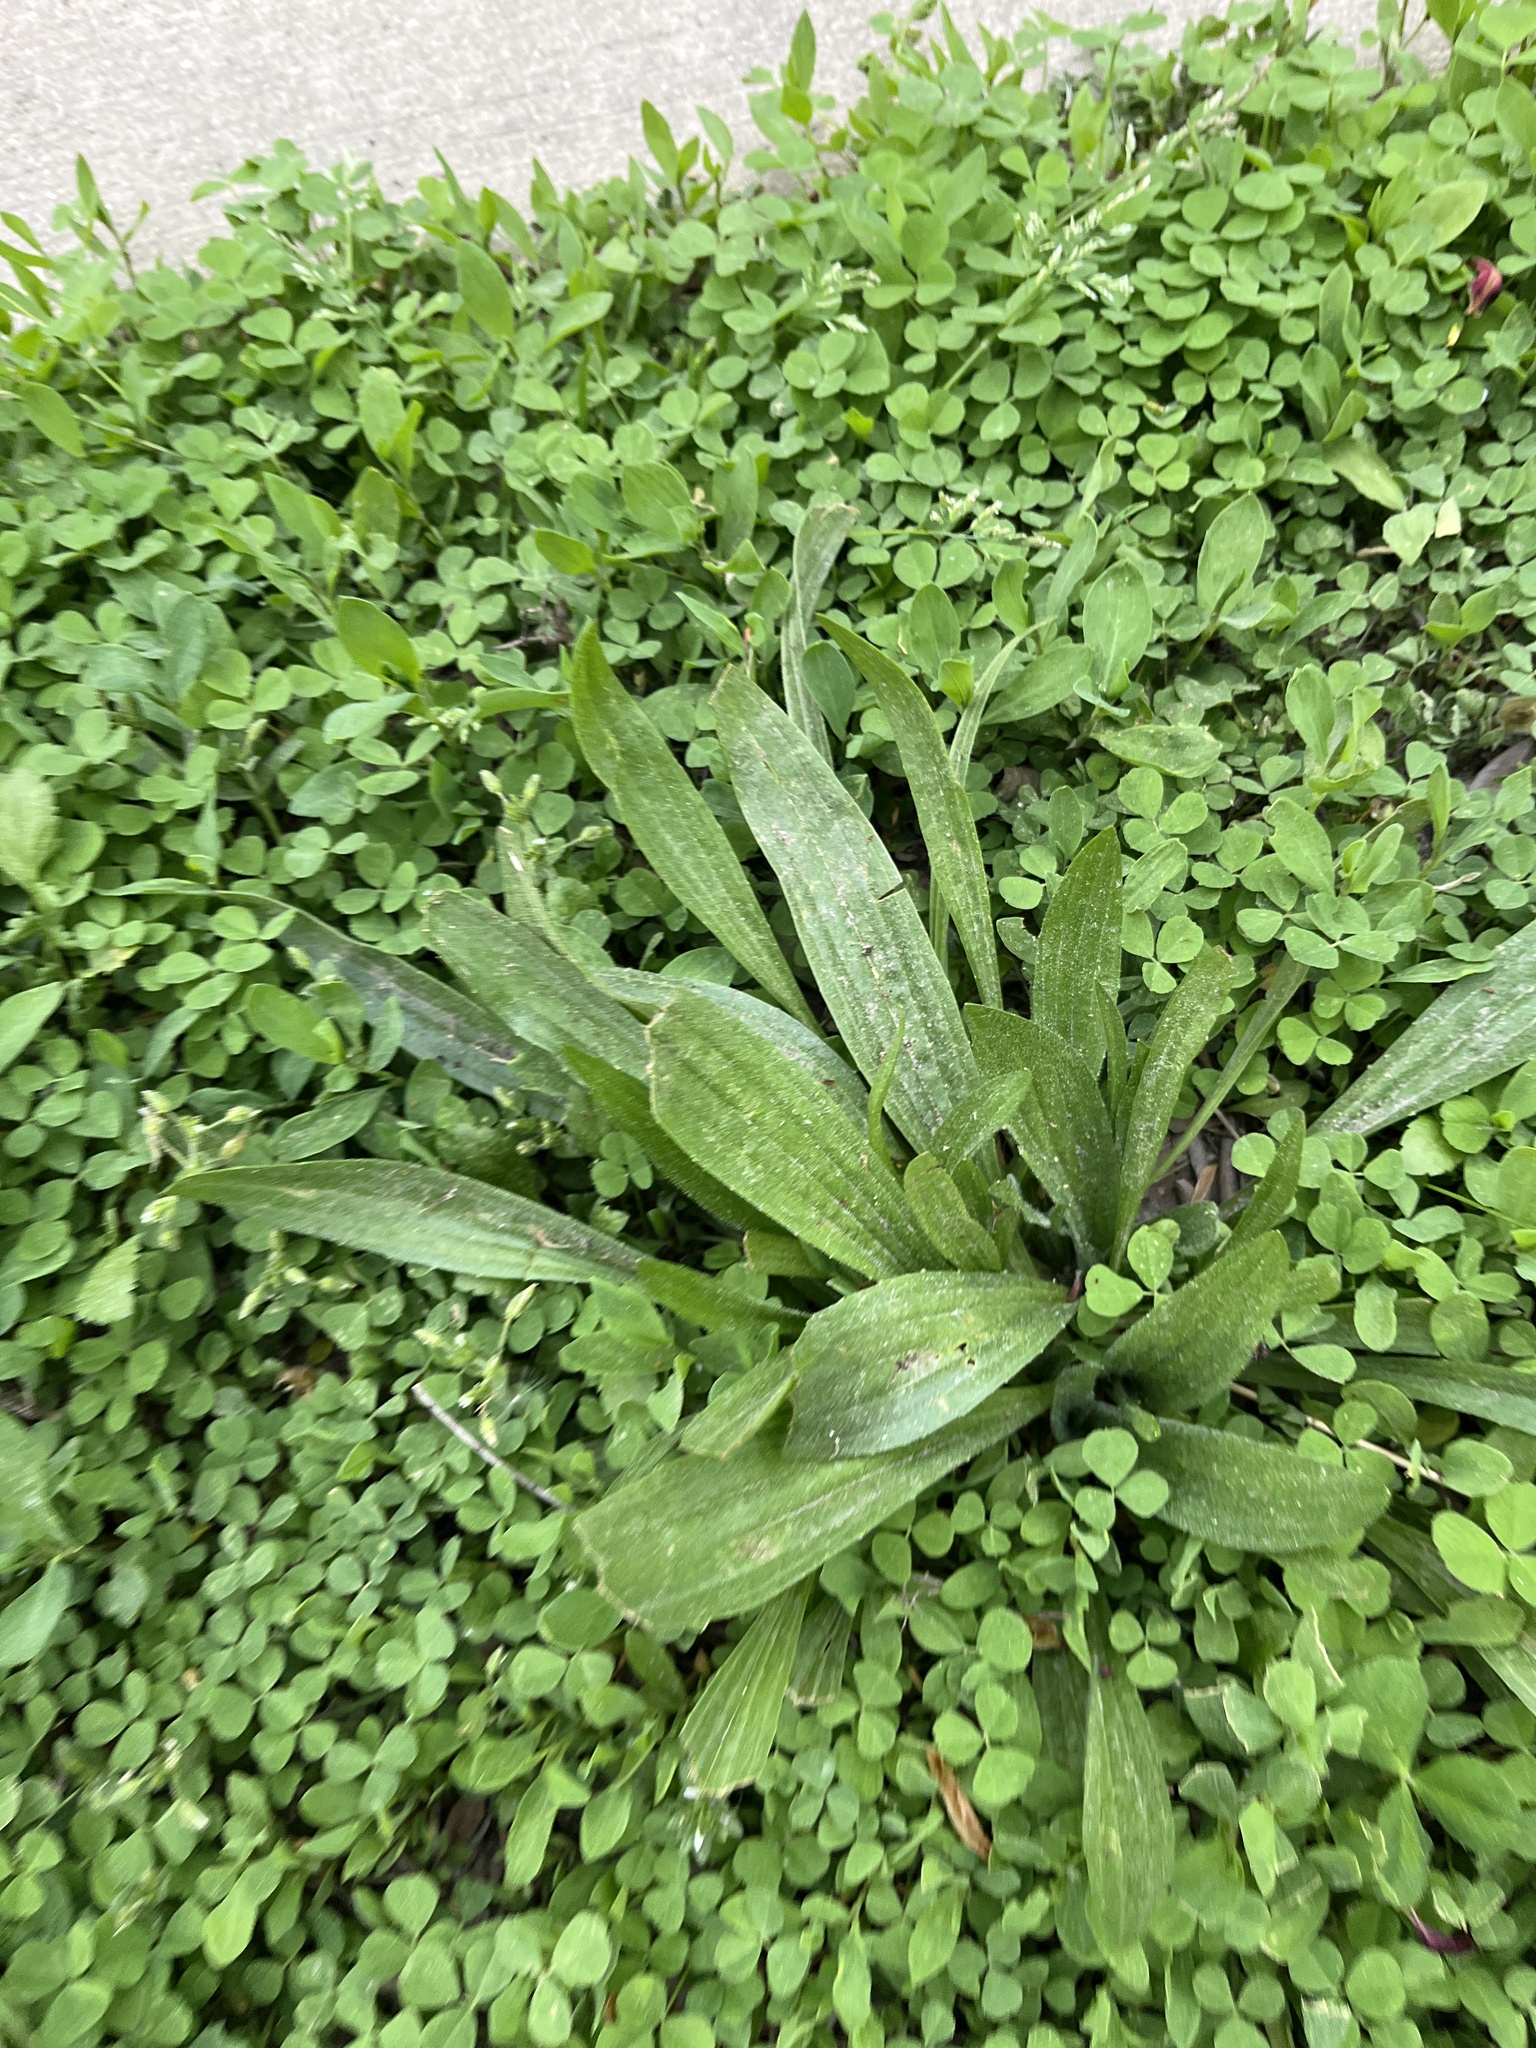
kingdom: Plantae
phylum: Tracheophyta
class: Magnoliopsida
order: Lamiales
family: Plantaginaceae
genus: Plantago
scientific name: Plantago lanceolata
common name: Ribwort plantain
